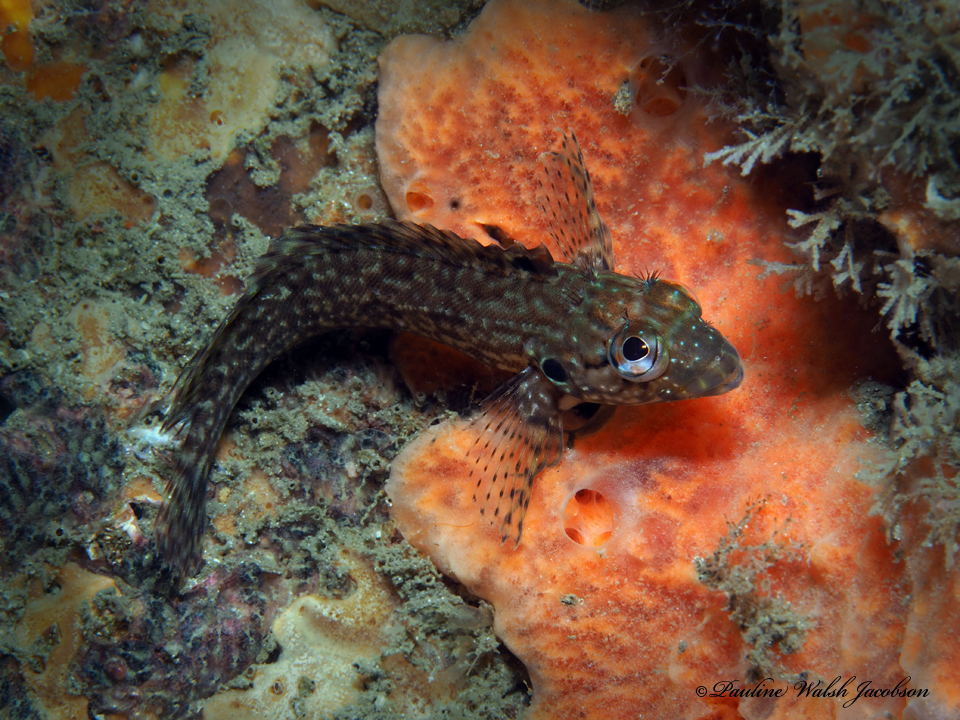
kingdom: Animalia
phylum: Chordata
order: Perciformes
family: Labrisomidae
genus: Labrisomus
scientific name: Labrisomus conditus
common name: Masquerader hairy blenny
